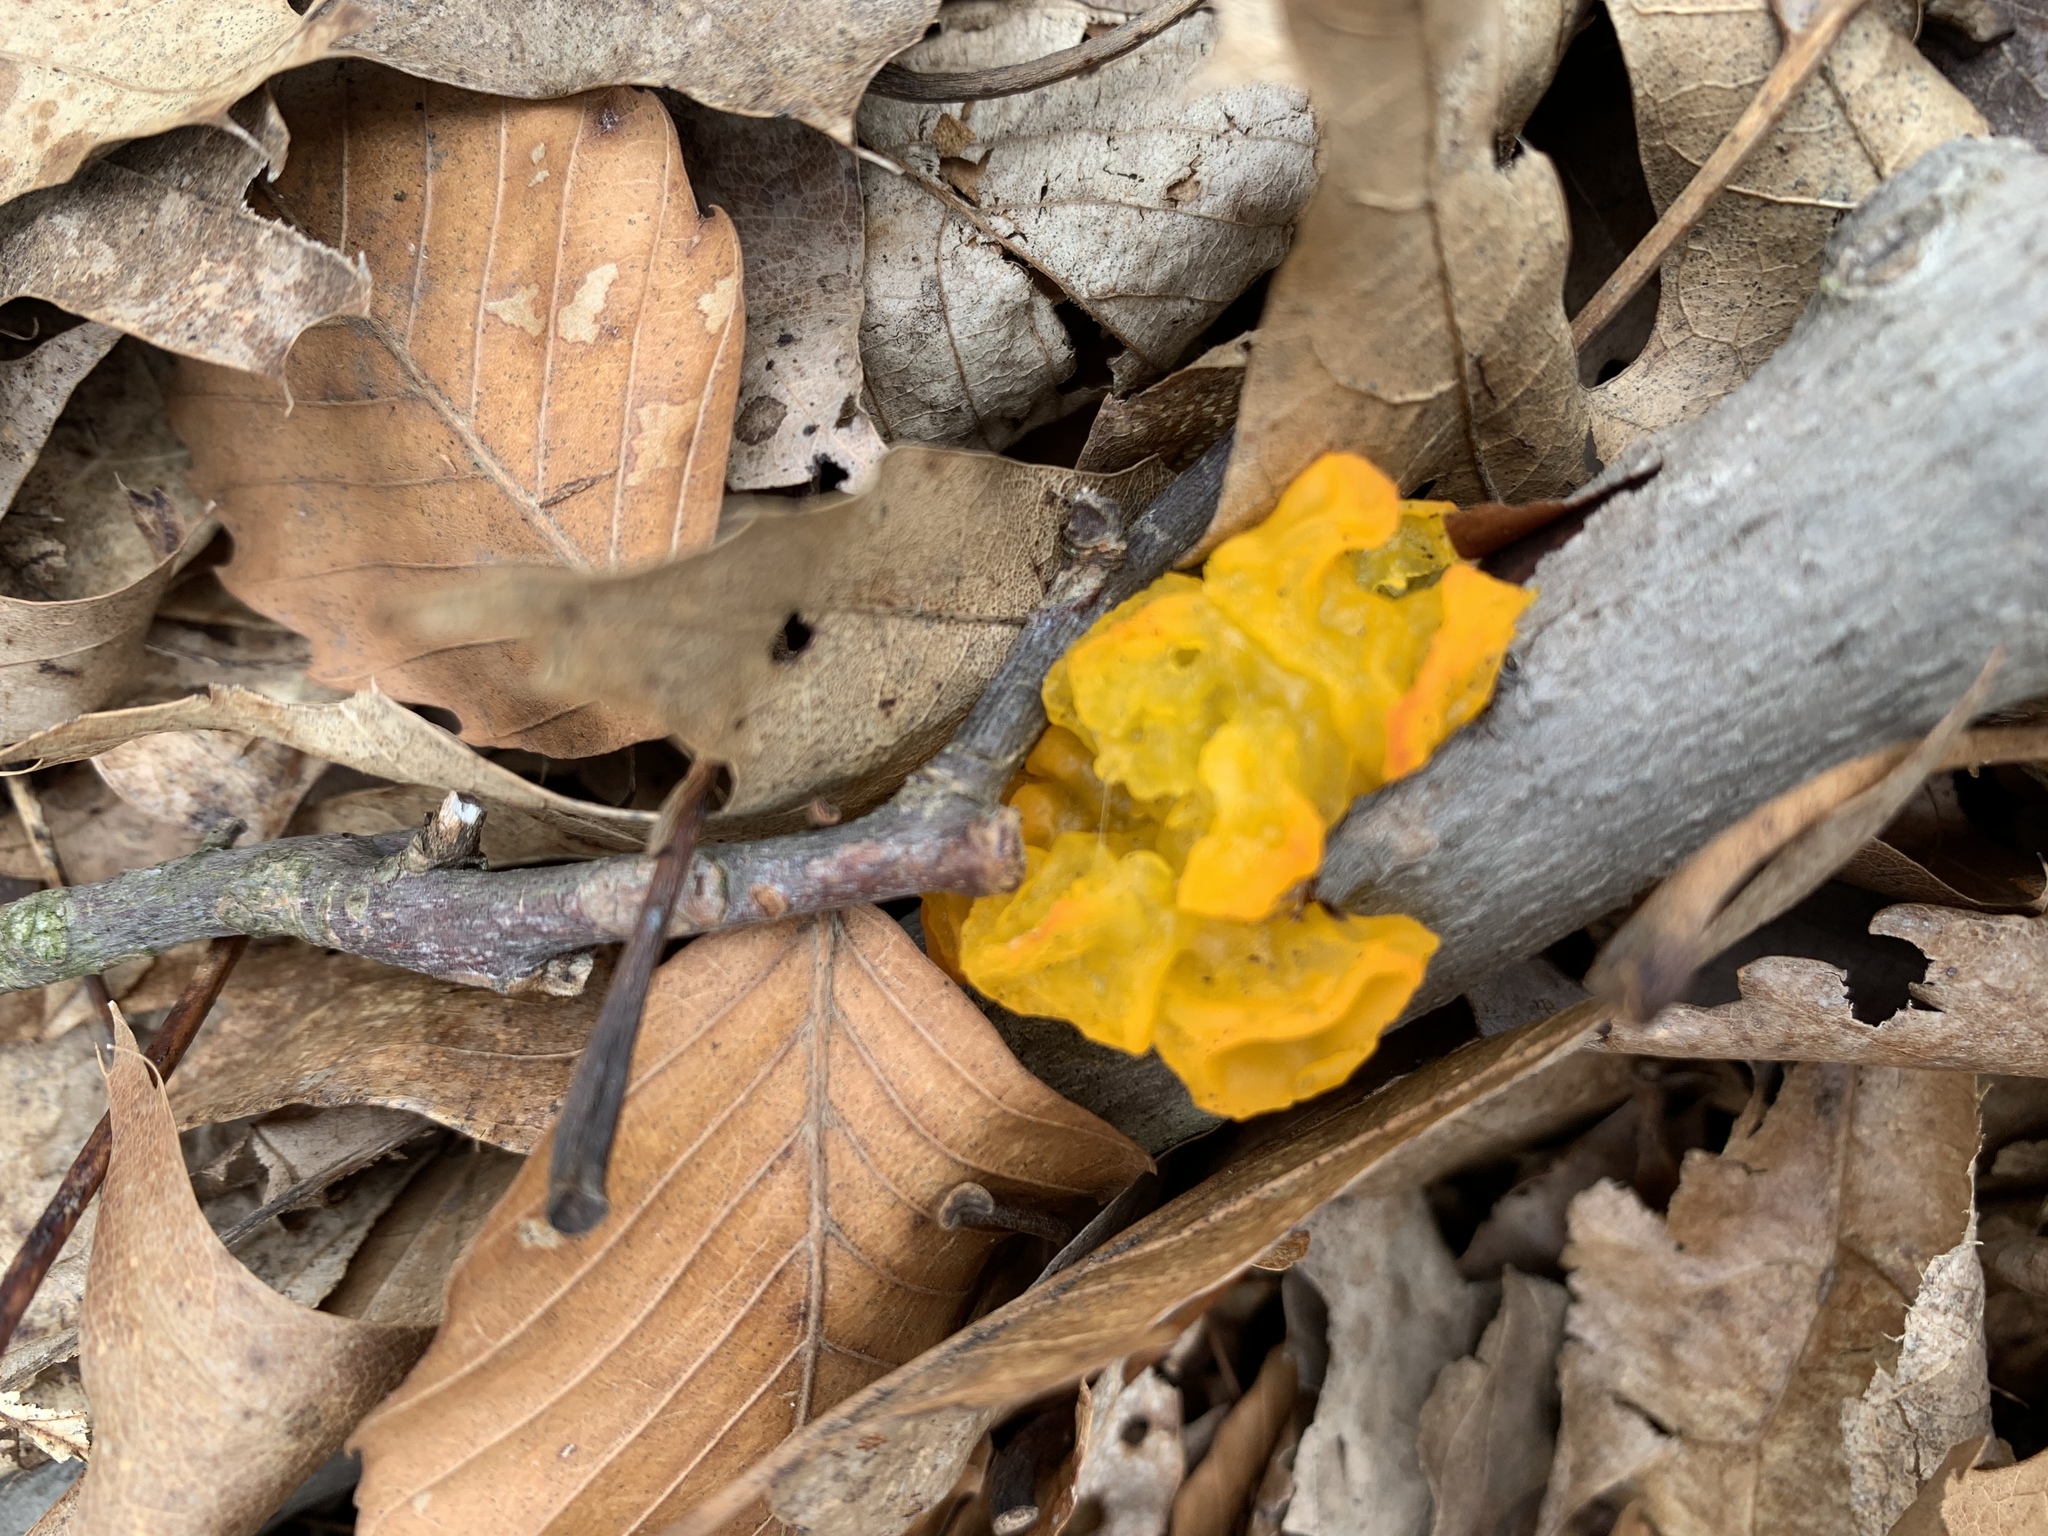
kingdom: Fungi
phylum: Basidiomycota
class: Tremellomycetes
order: Tremellales
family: Tremellaceae
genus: Tremella
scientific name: Tremella mesenterica
